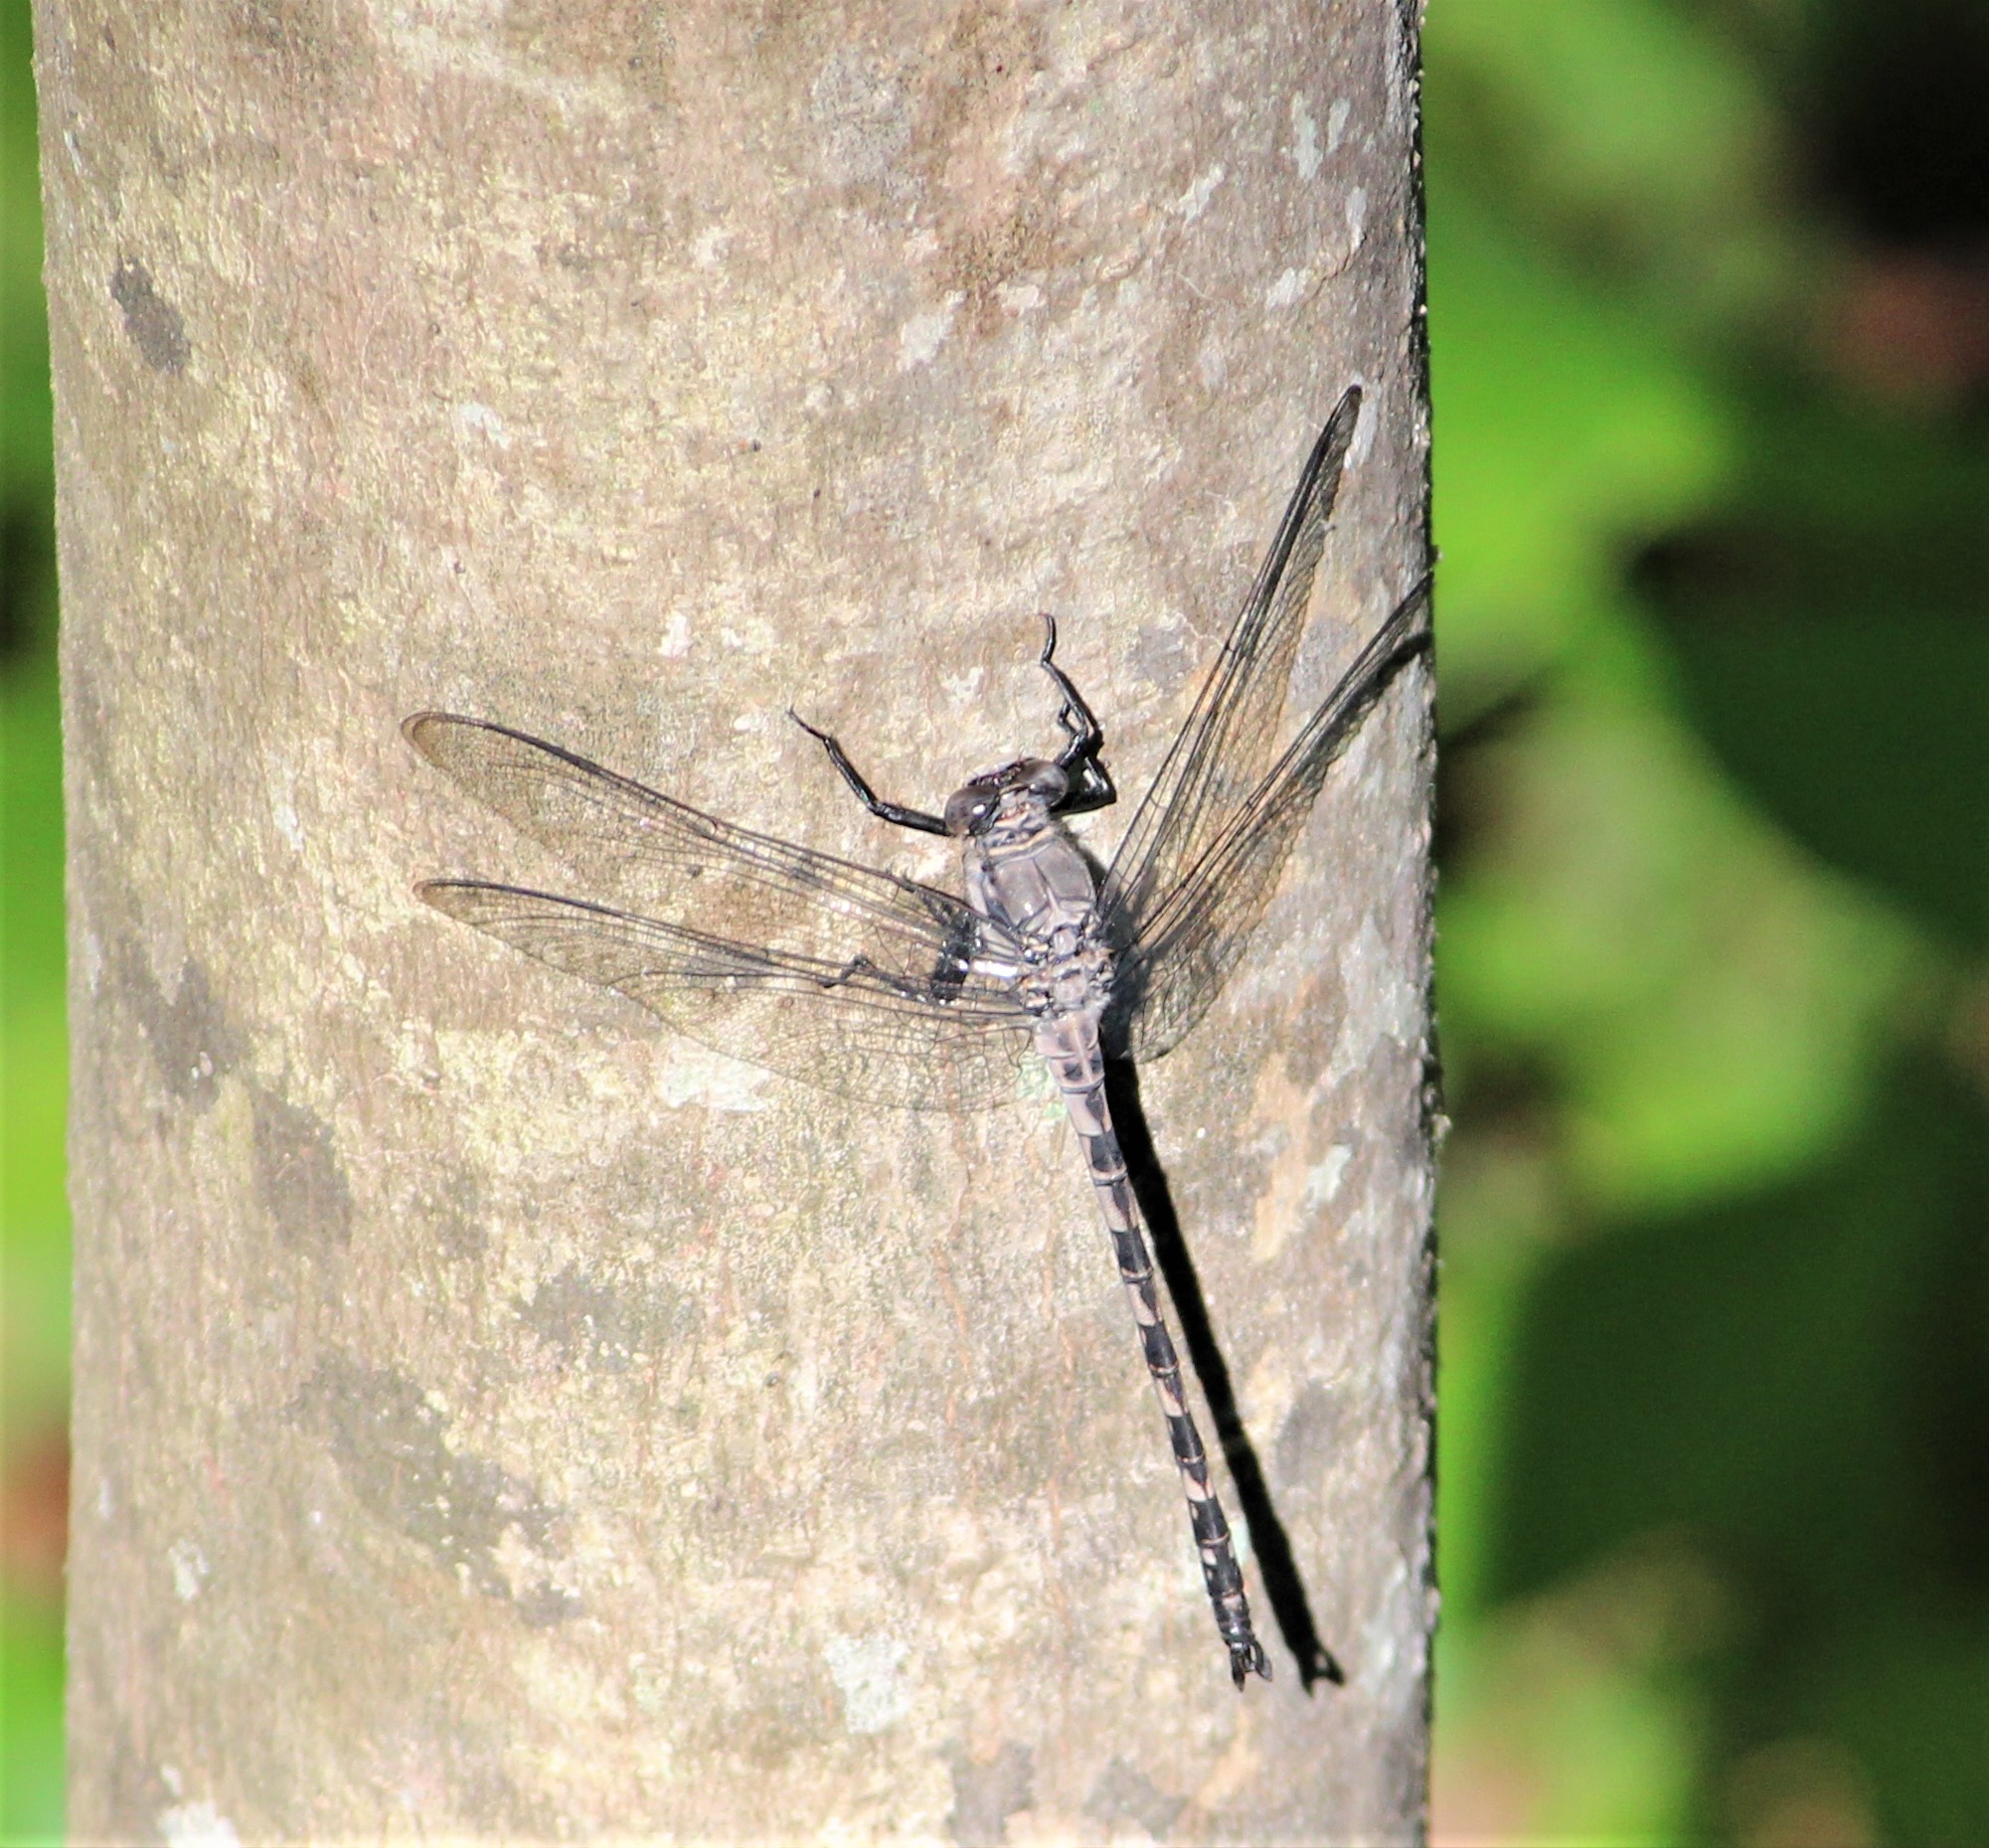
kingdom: Animalia
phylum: Arthropoda
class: Insecta
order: Odonata
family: Petaluridae
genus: Tachopteryx
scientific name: Tachopteryx thoreyi
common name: Gray petaltail
